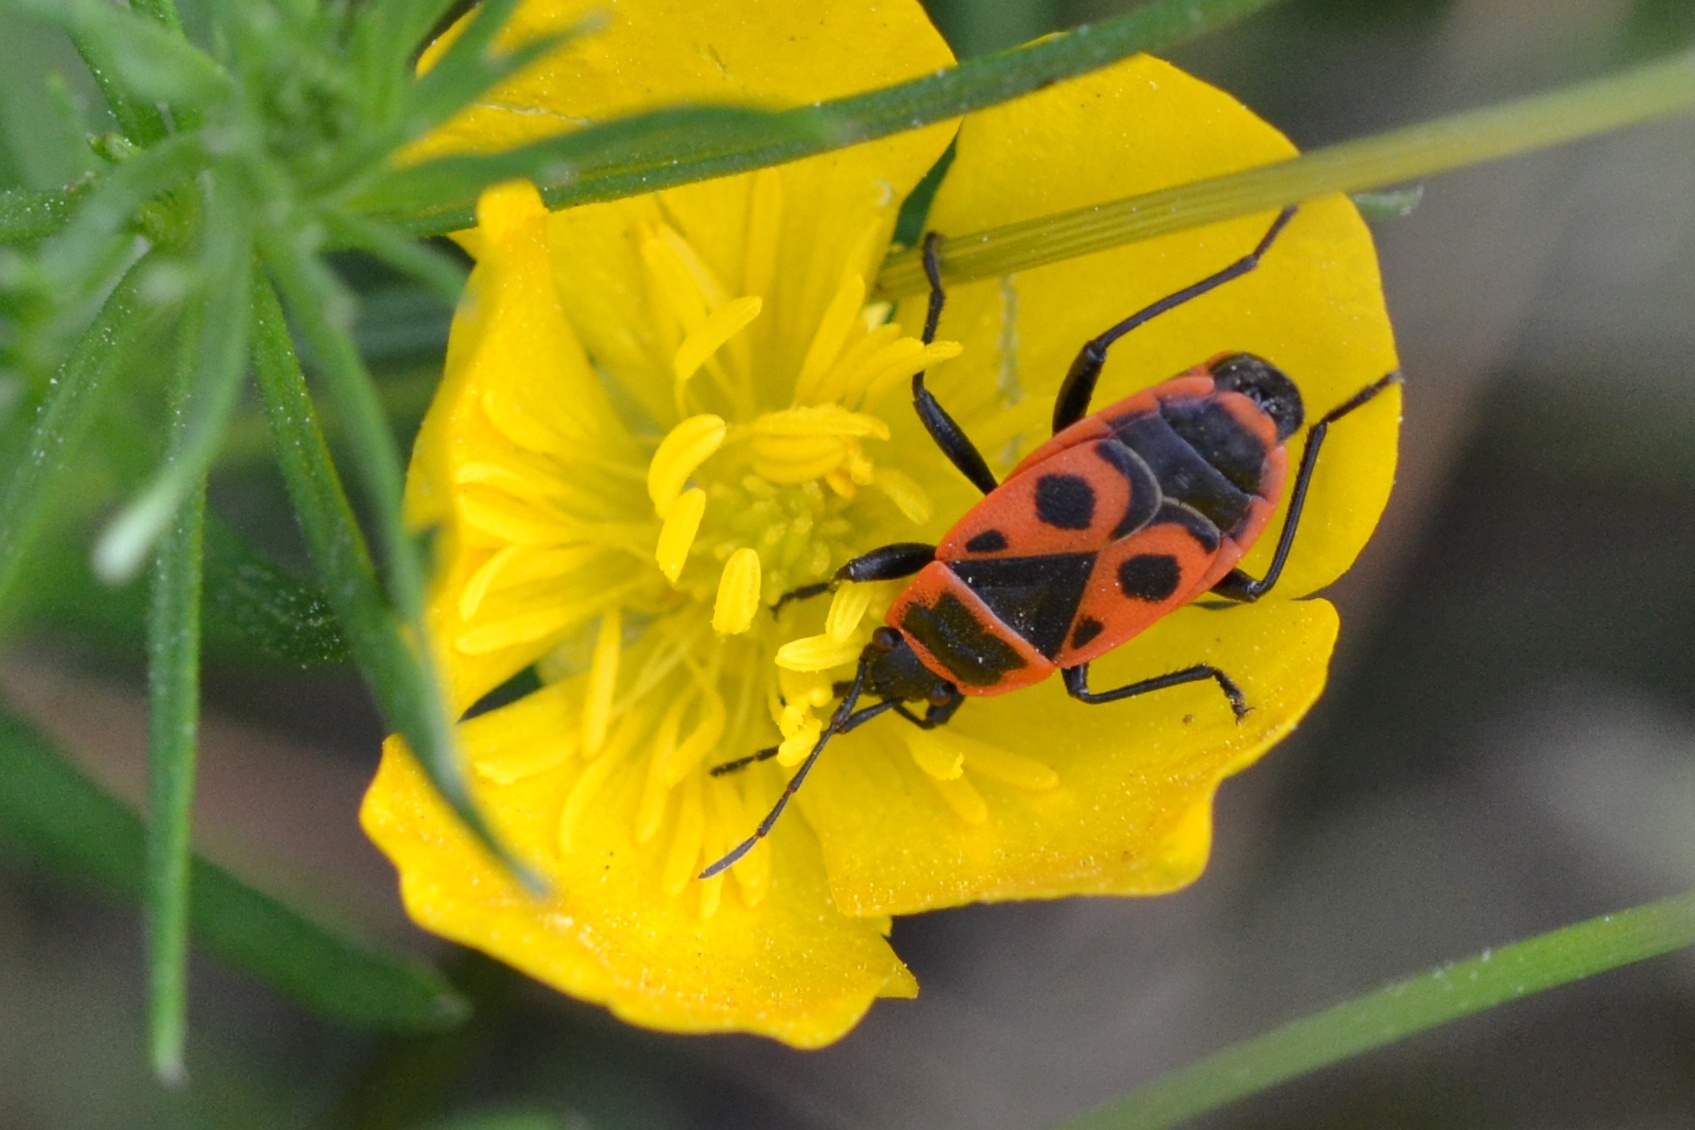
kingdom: Animalia
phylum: Arthropoda
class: Insecta
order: Hemiptera
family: Pyrrhocoridae
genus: Pyrrhocoris
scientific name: Pyrrhocoris apterus
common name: Firebug
